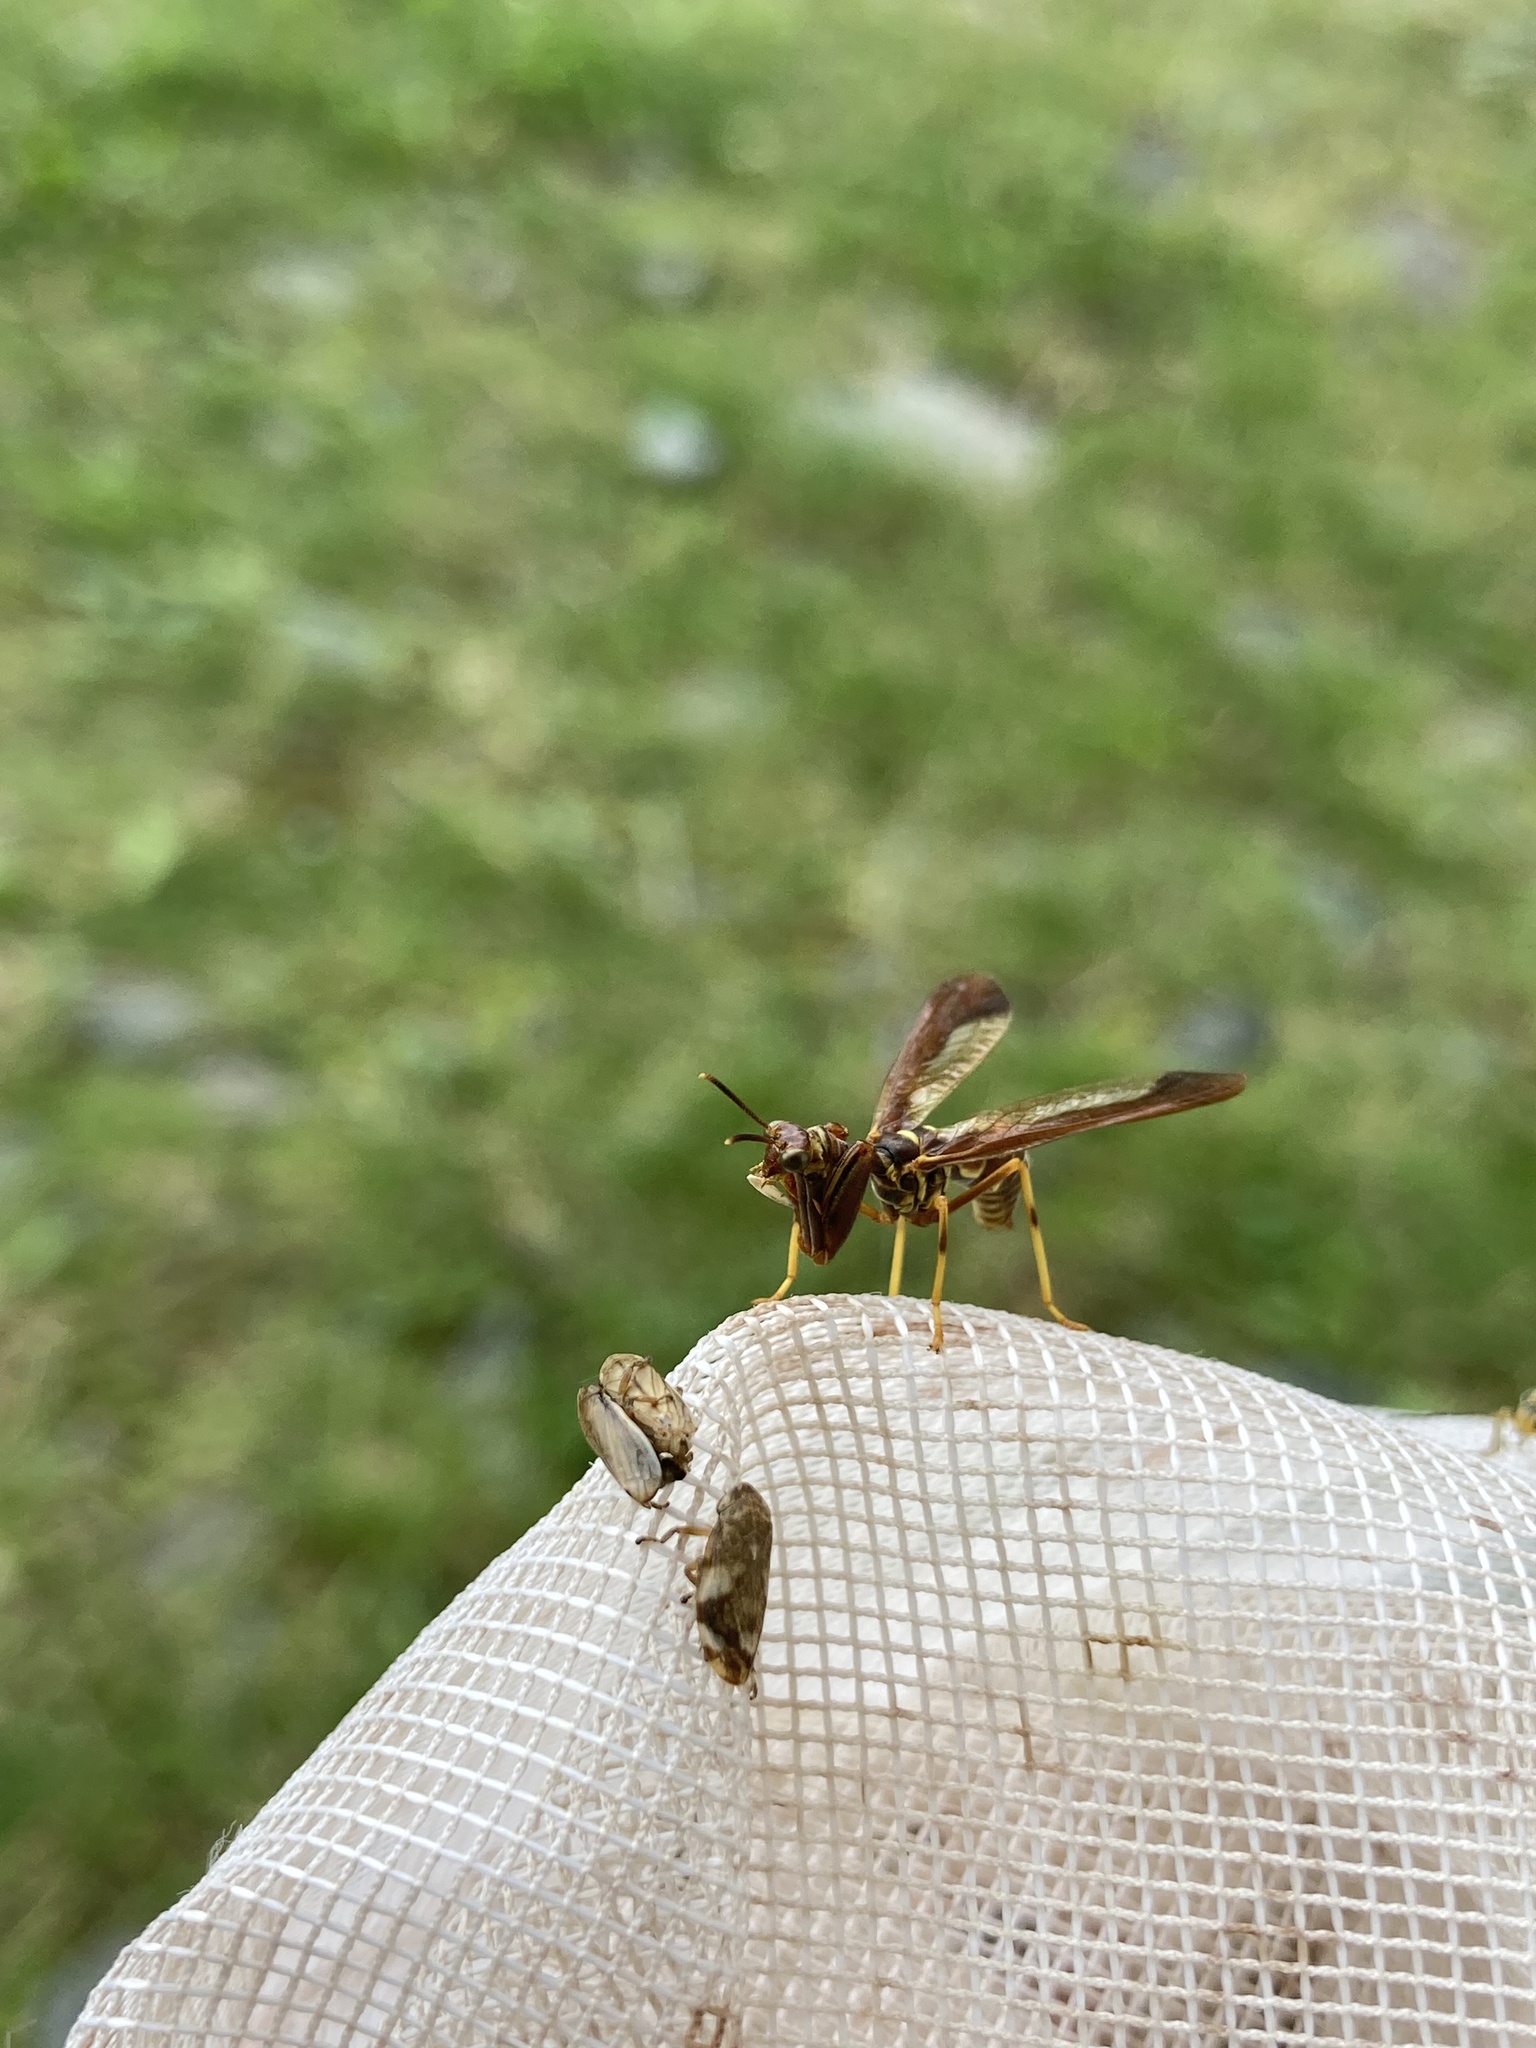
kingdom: Animalia
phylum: Arthropoda
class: Insecta
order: Neuroptera
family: Mantispidae
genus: Climaciella
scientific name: Climaciella brunnea
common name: Brown wasp mantidfly
